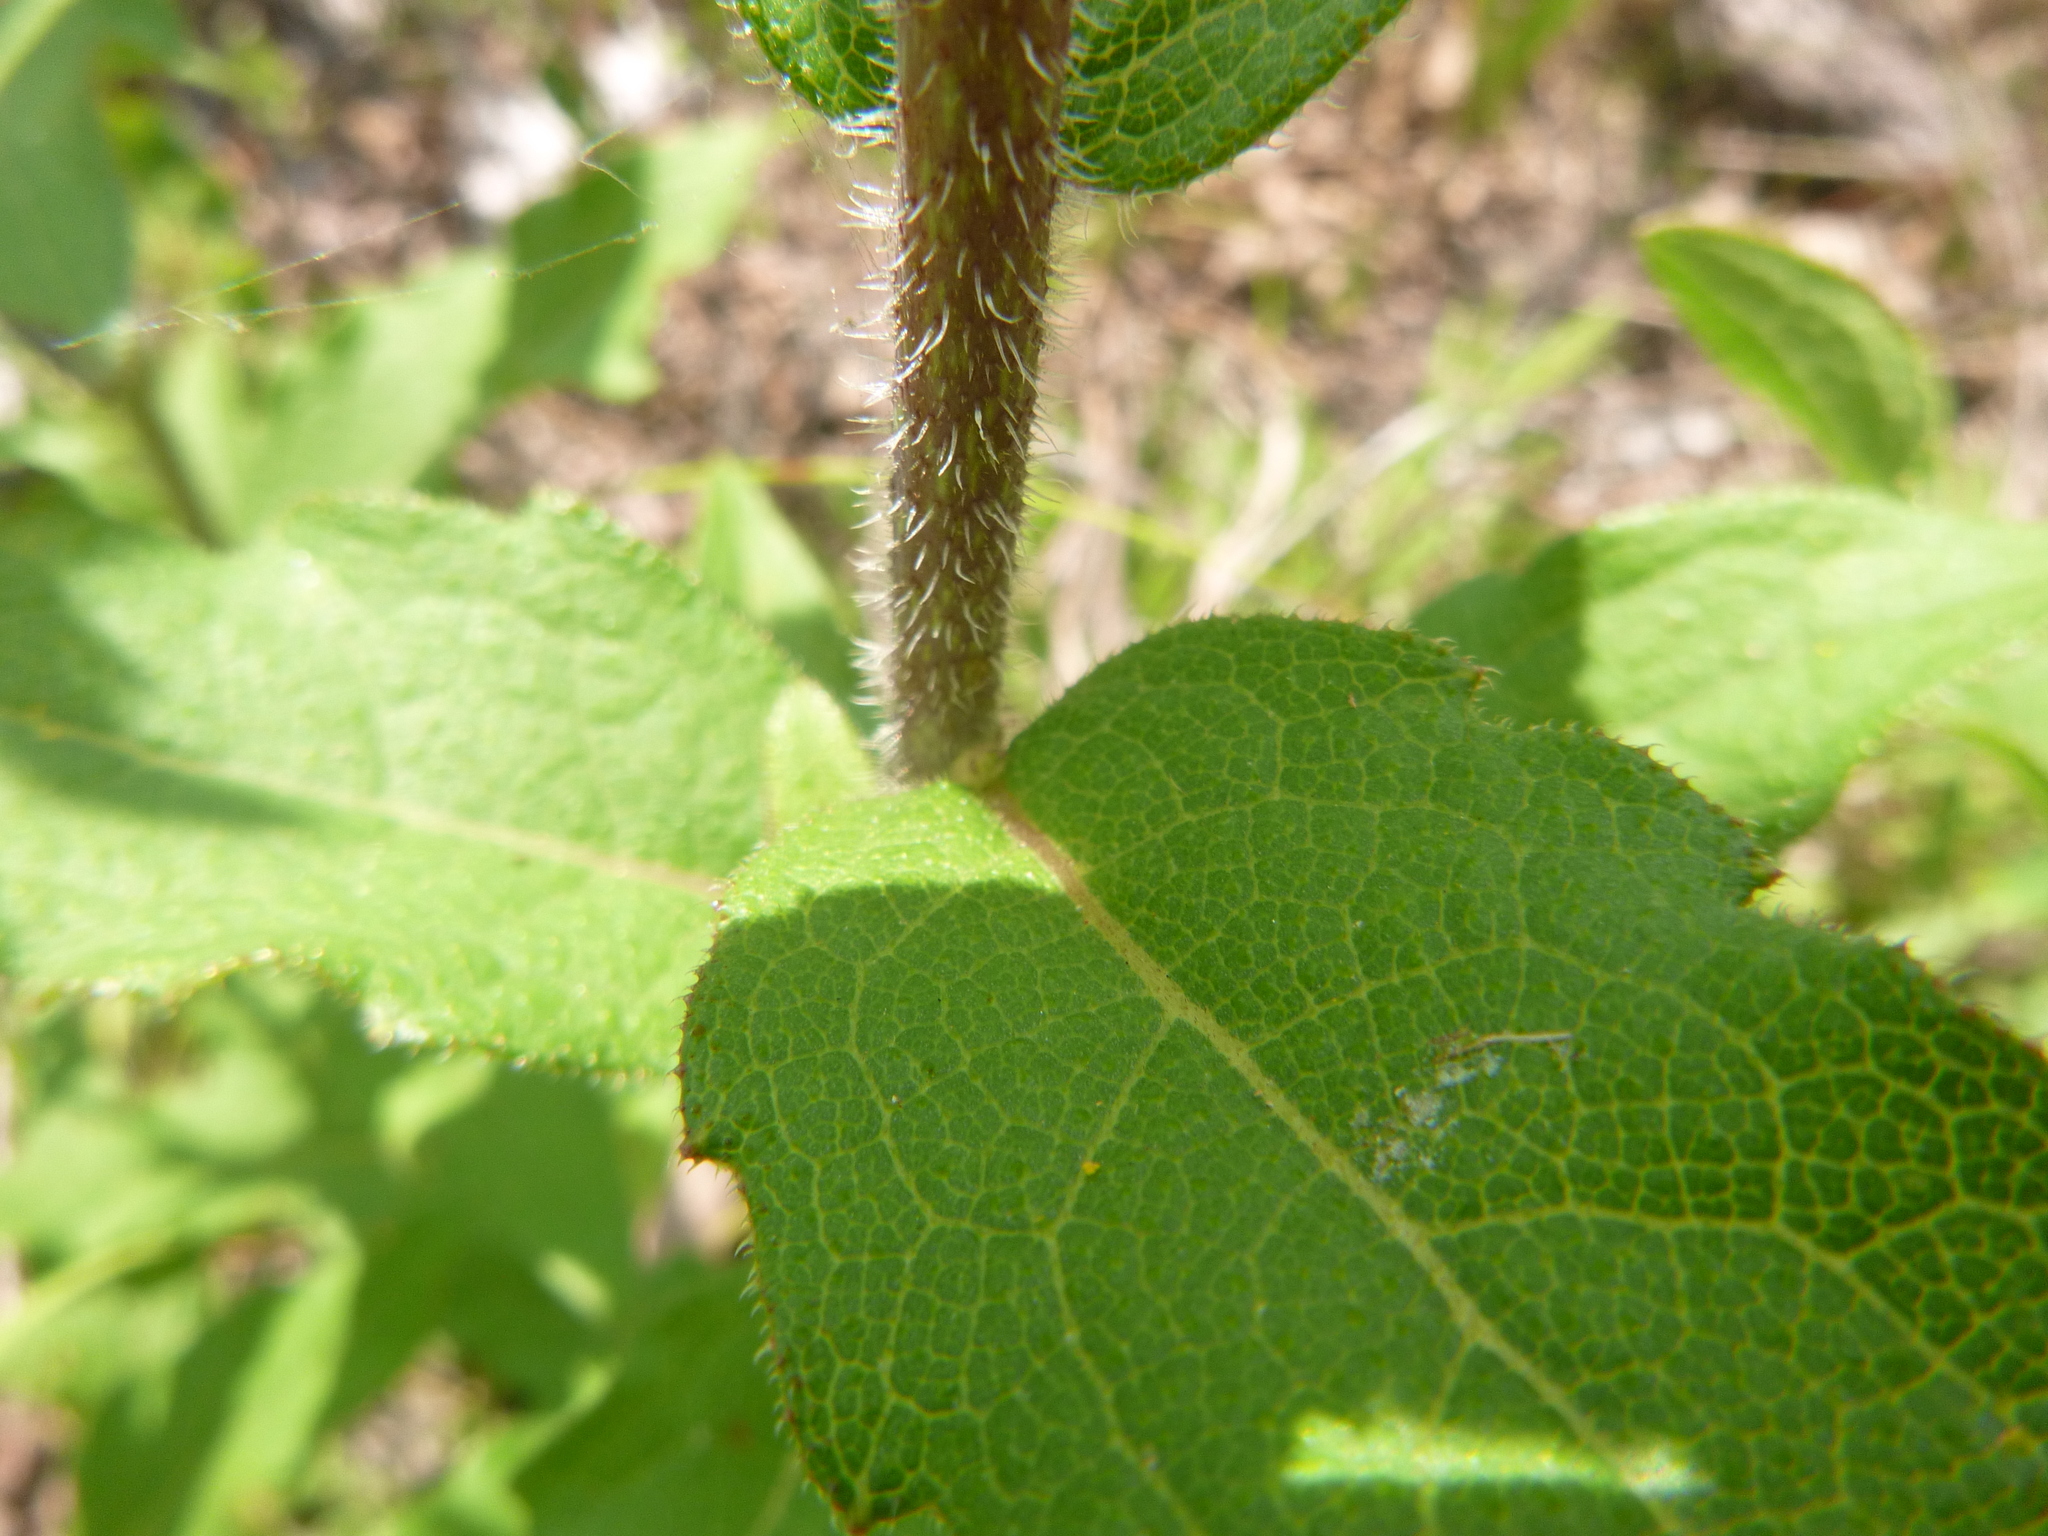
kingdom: Plantae
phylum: Tracheophyta
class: Magnoliopsida
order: Asterales
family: Asteraceae
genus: Silphium
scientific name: Silphium asteriscus
